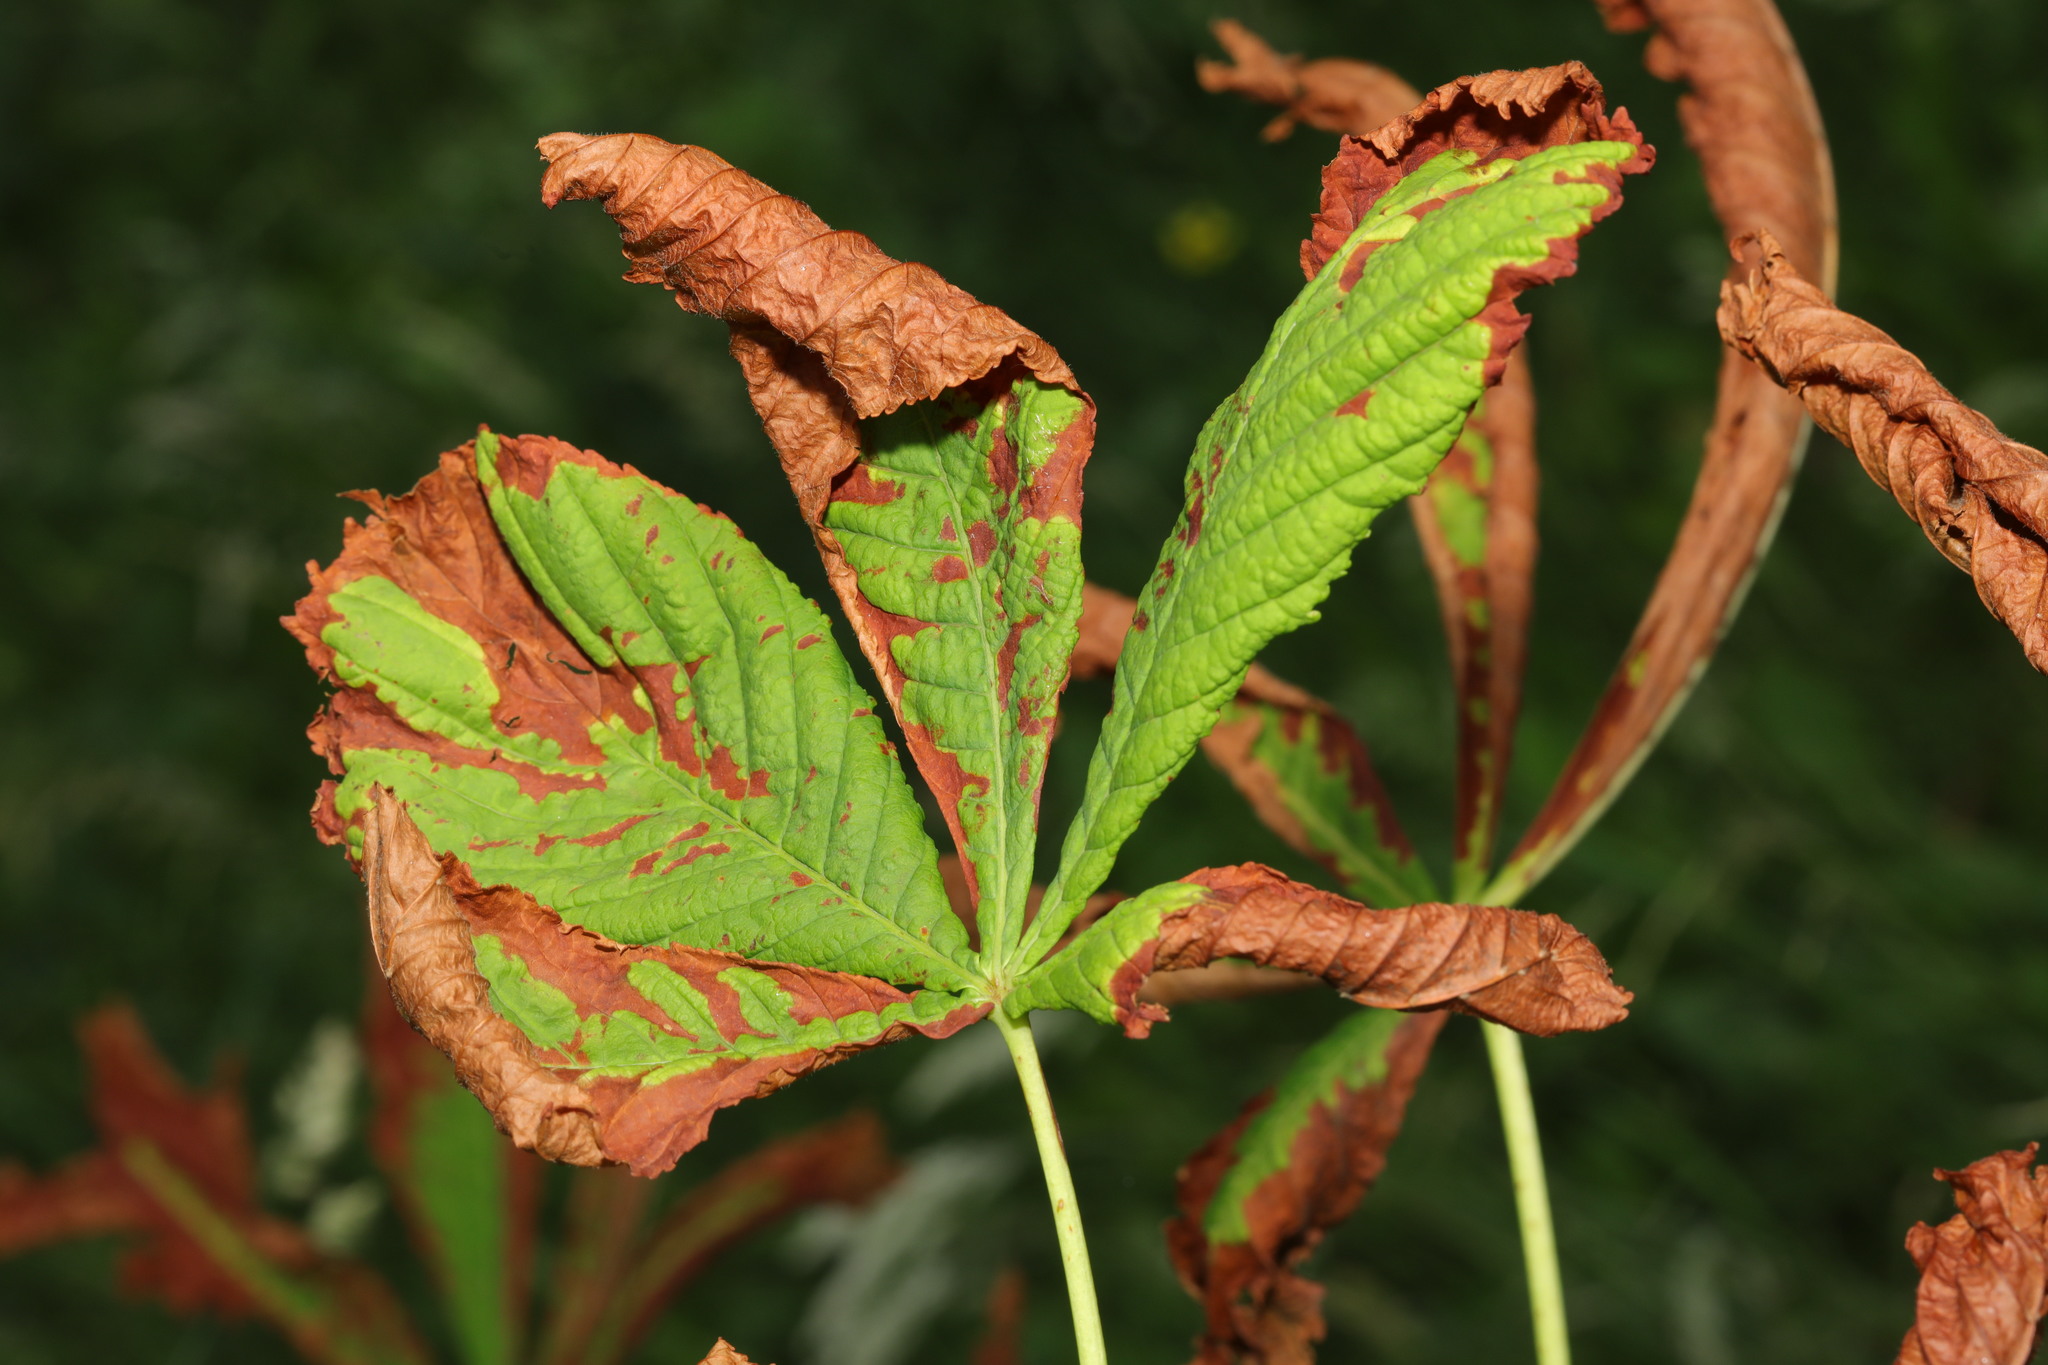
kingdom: Plantae
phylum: Tracheophyta
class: Magnoliopsida
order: Sapindales
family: Sapindaceae
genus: Aesculus
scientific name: Aesculus hippocastanum
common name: Horse-chestnut
